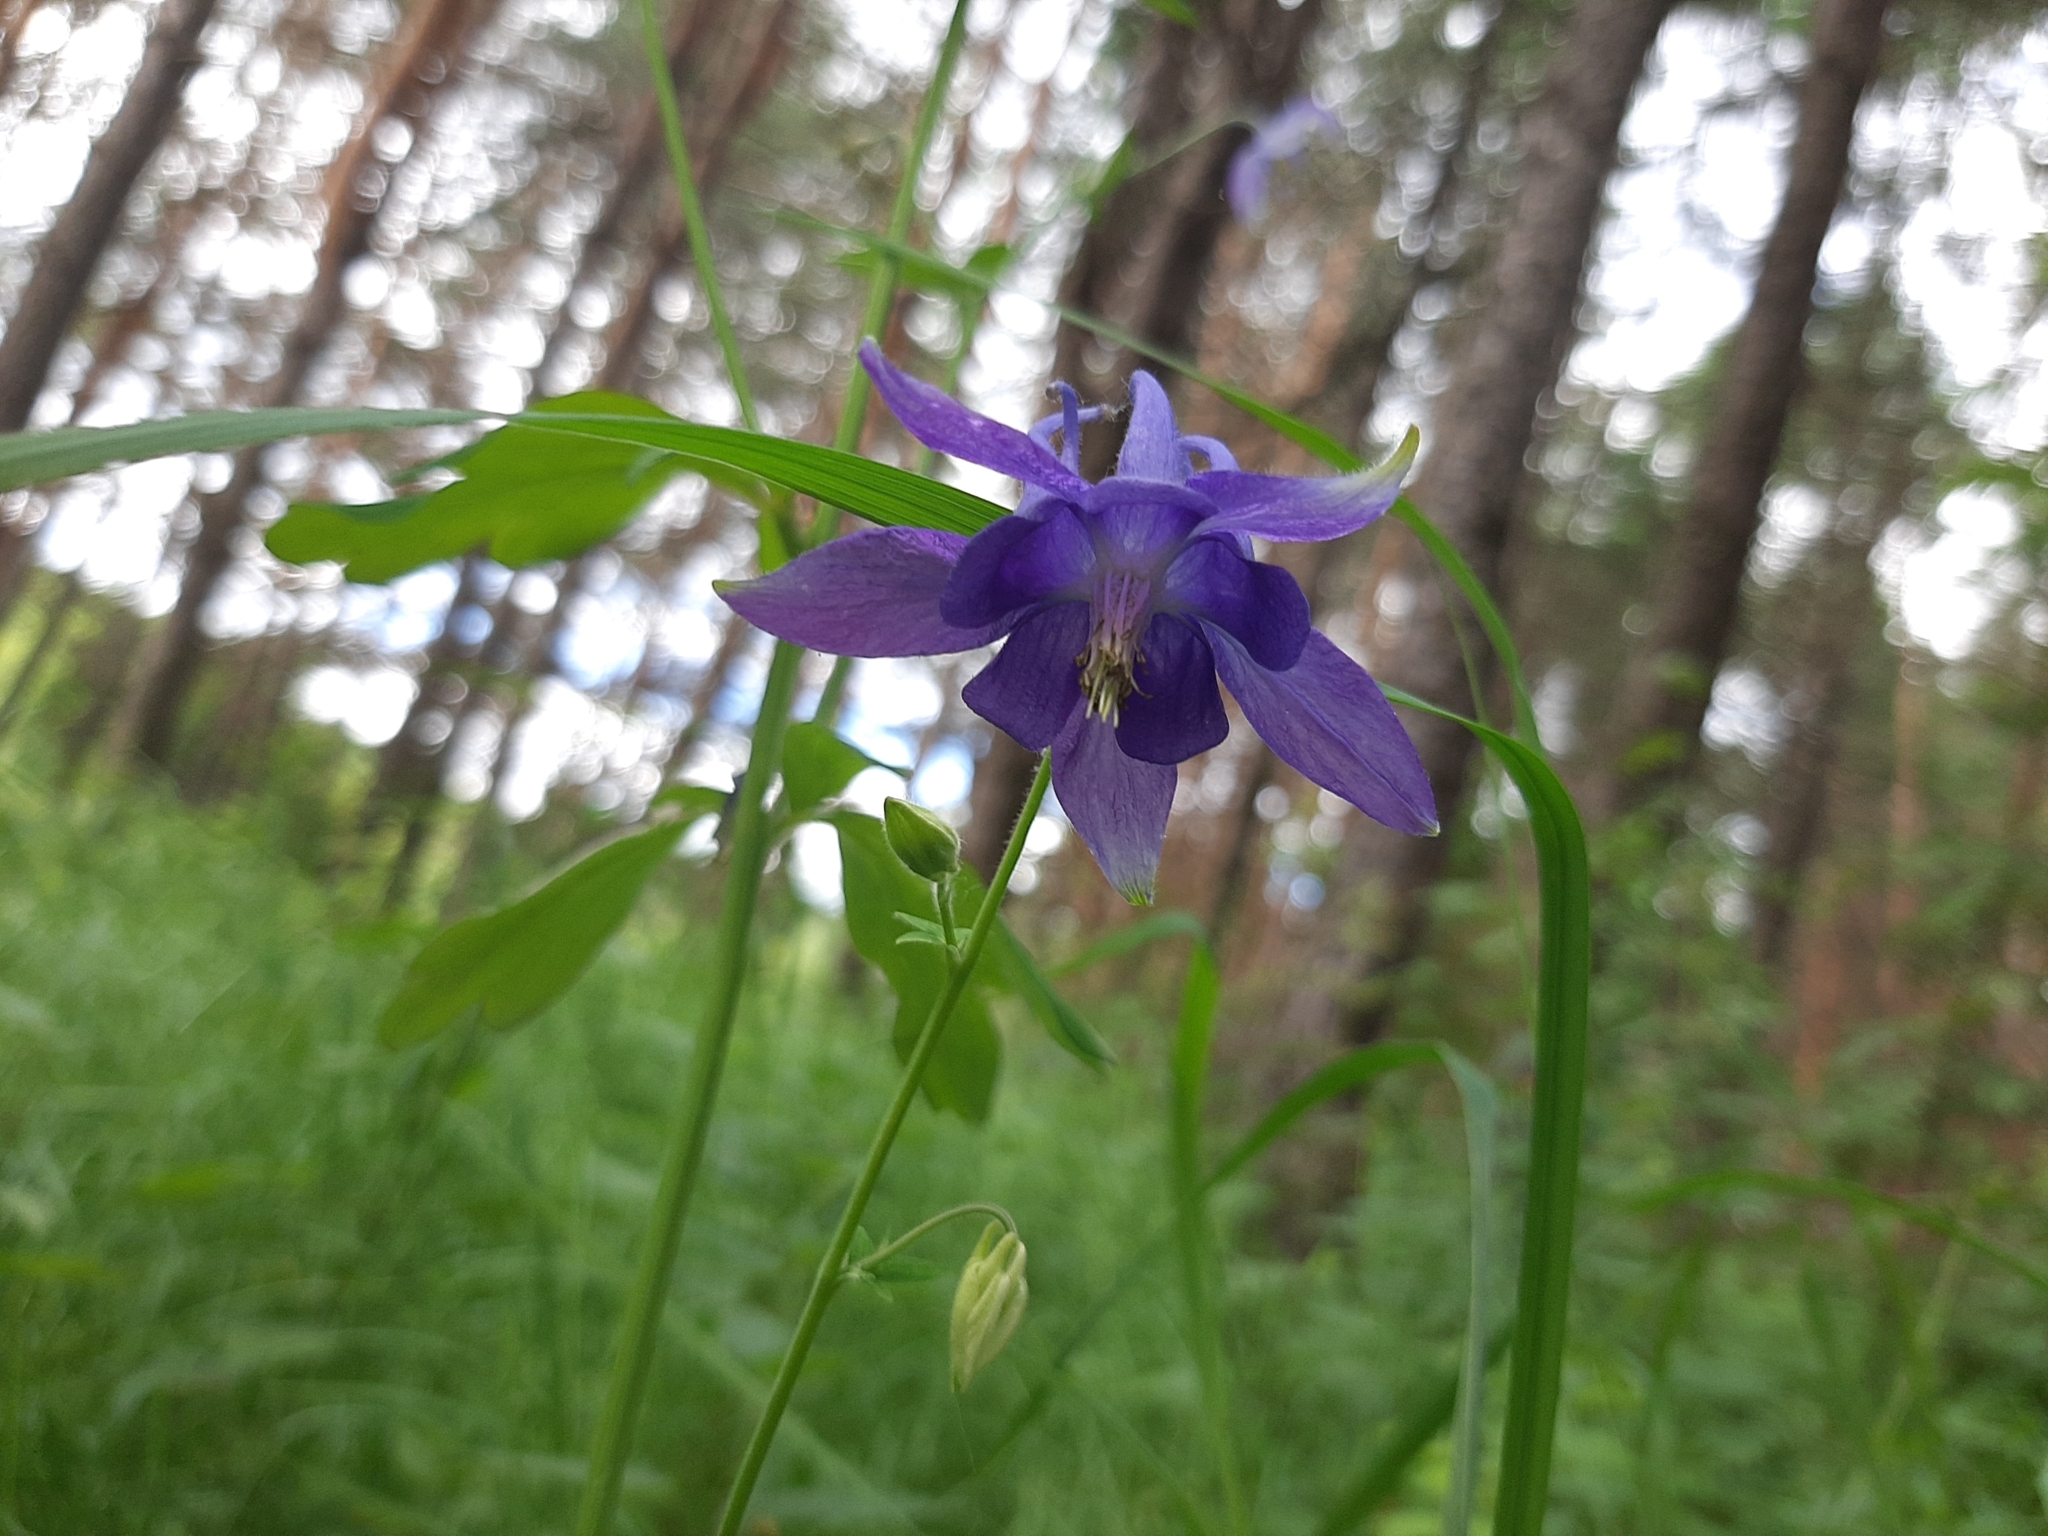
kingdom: Plantae
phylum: Tracheophyta
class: Magnoliopsida
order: Ranunculales
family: Ranunculaceae
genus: Aquilegia
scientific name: Aquilegia vulgaris
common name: Columbine
